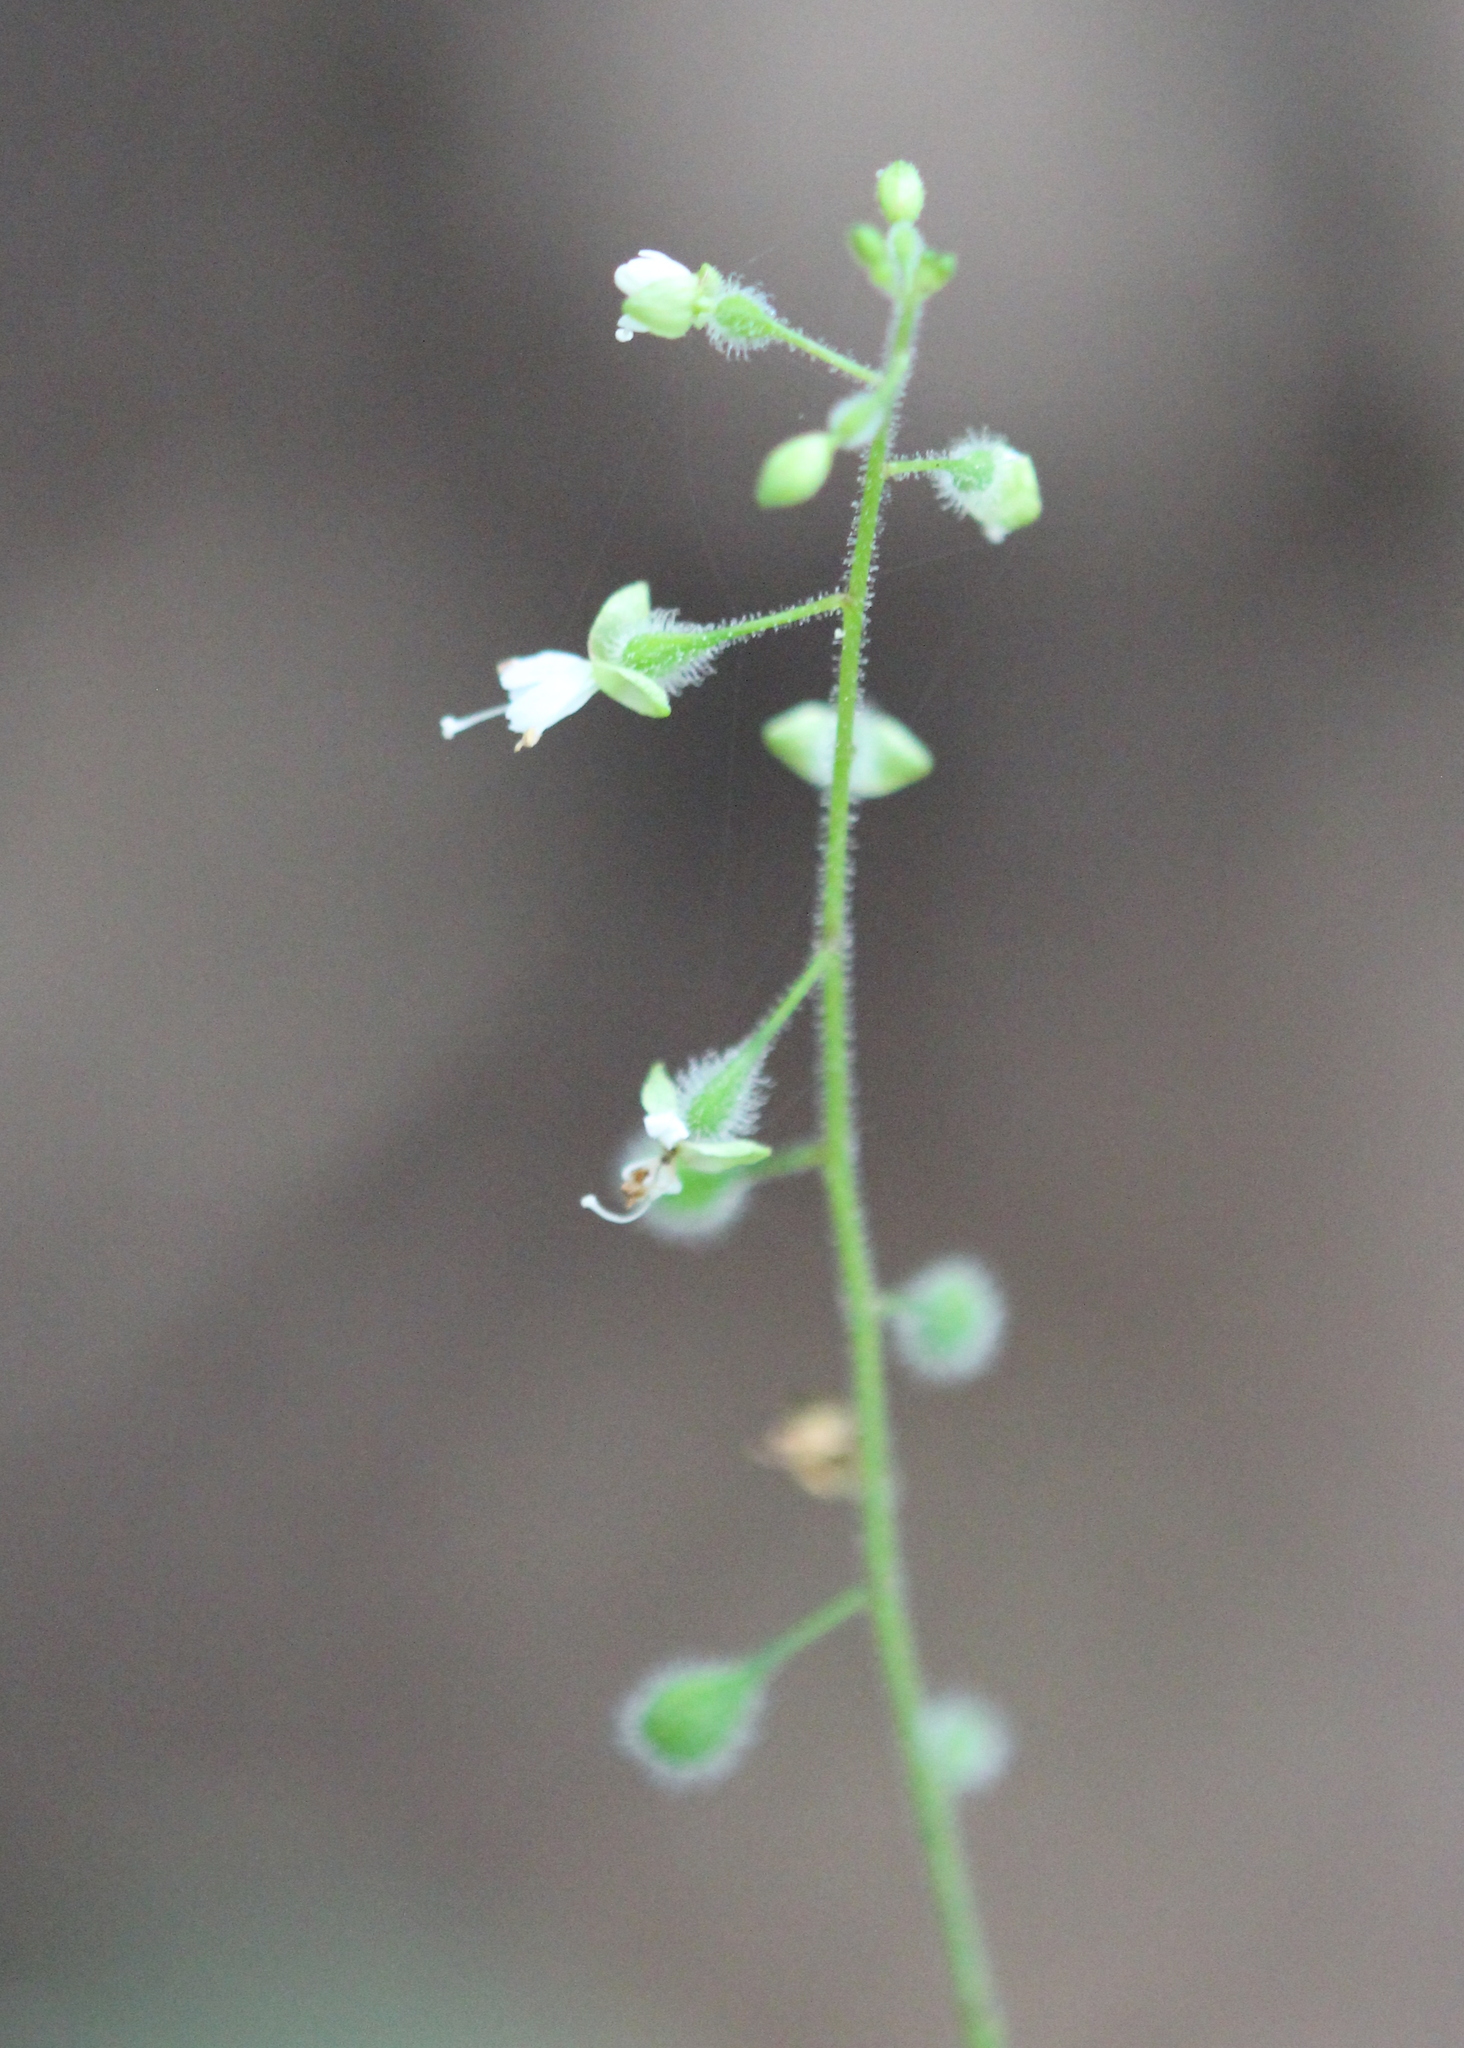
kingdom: Plantae
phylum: Tracheophyta
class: Magnoliopsida
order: Myrtales
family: Onagraceae
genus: Circaea
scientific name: Circaea canadensis
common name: Broad-leaved enchanter's nightshade
